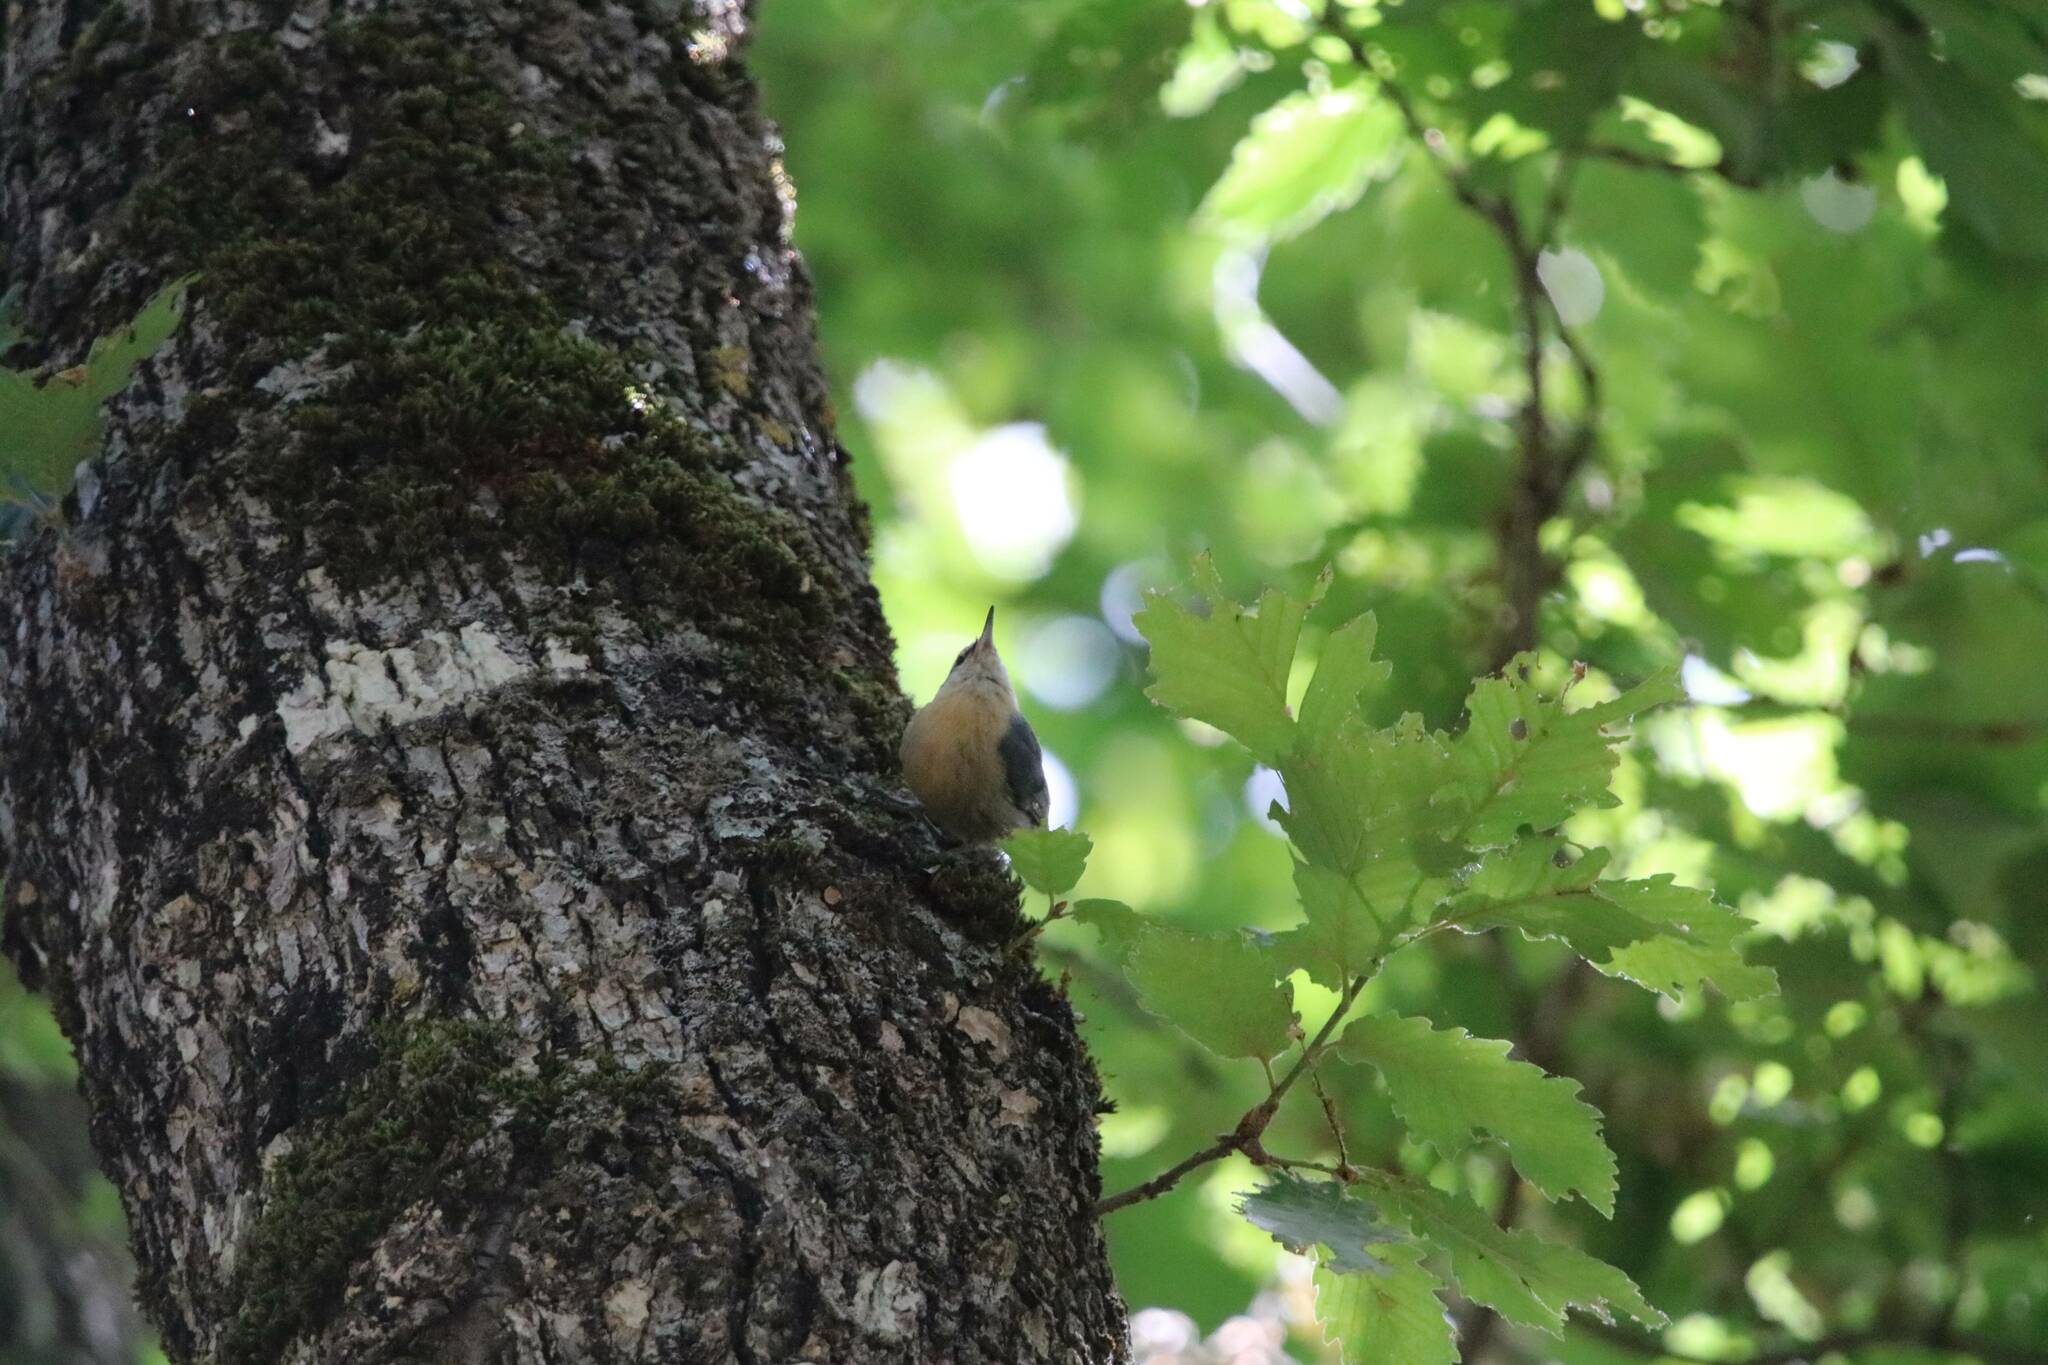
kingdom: Animalia
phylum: Chordata
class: Aves
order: Passeriformes
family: Sittidae
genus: Sitta
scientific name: Sitta ledanti
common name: Algerian nuthatch
